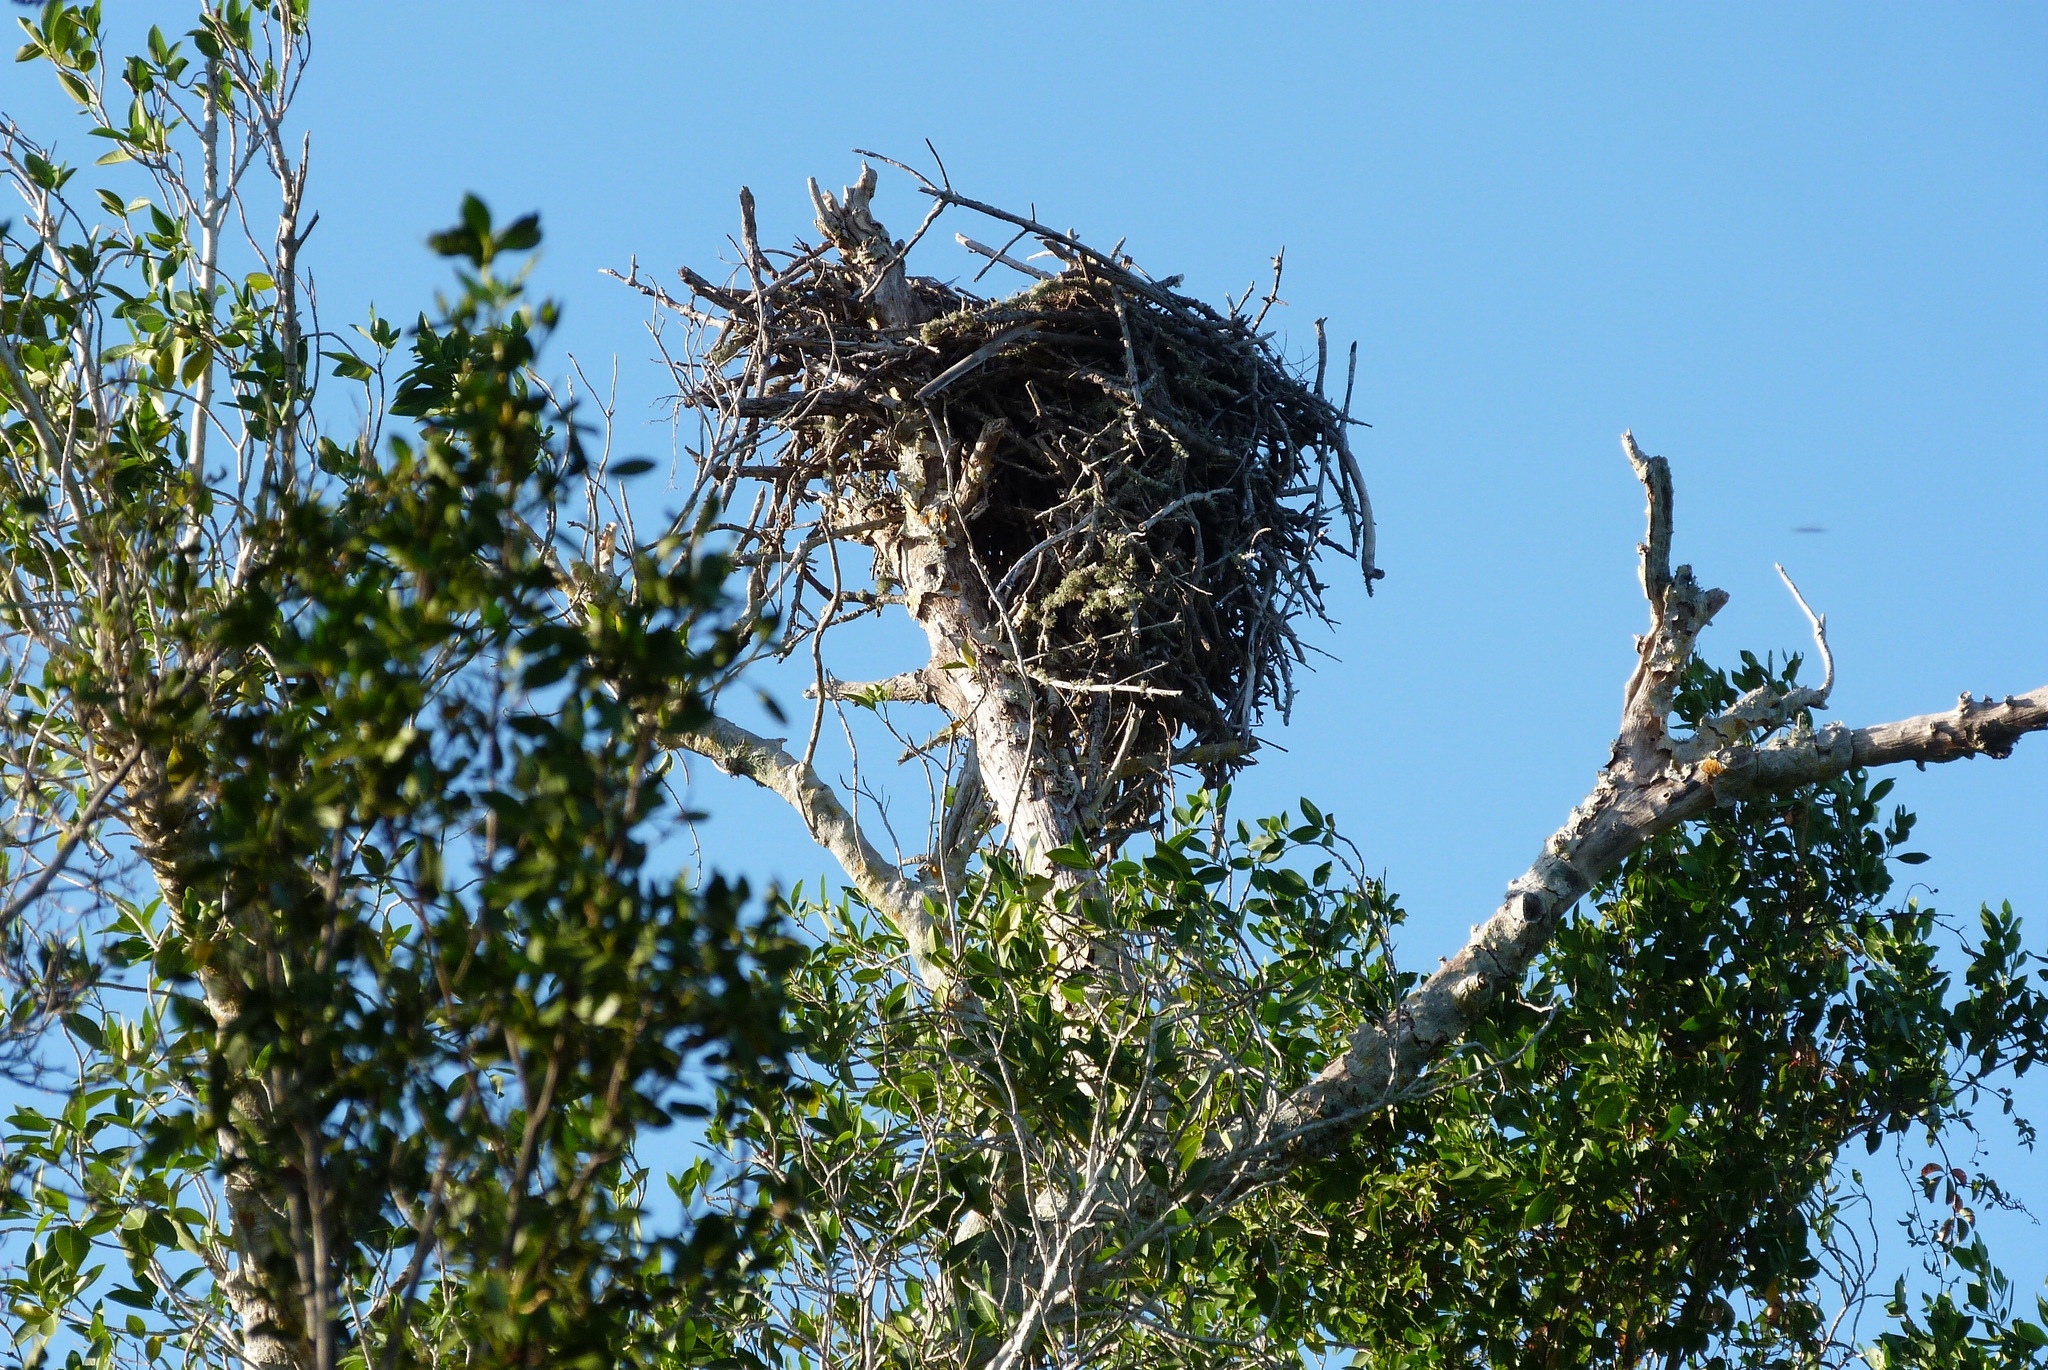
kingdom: Animalia
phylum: Chordata
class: Aves
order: Accipitriformes
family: Pandionidae
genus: Pandion
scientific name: Pandion haliaetus
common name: Osprey
